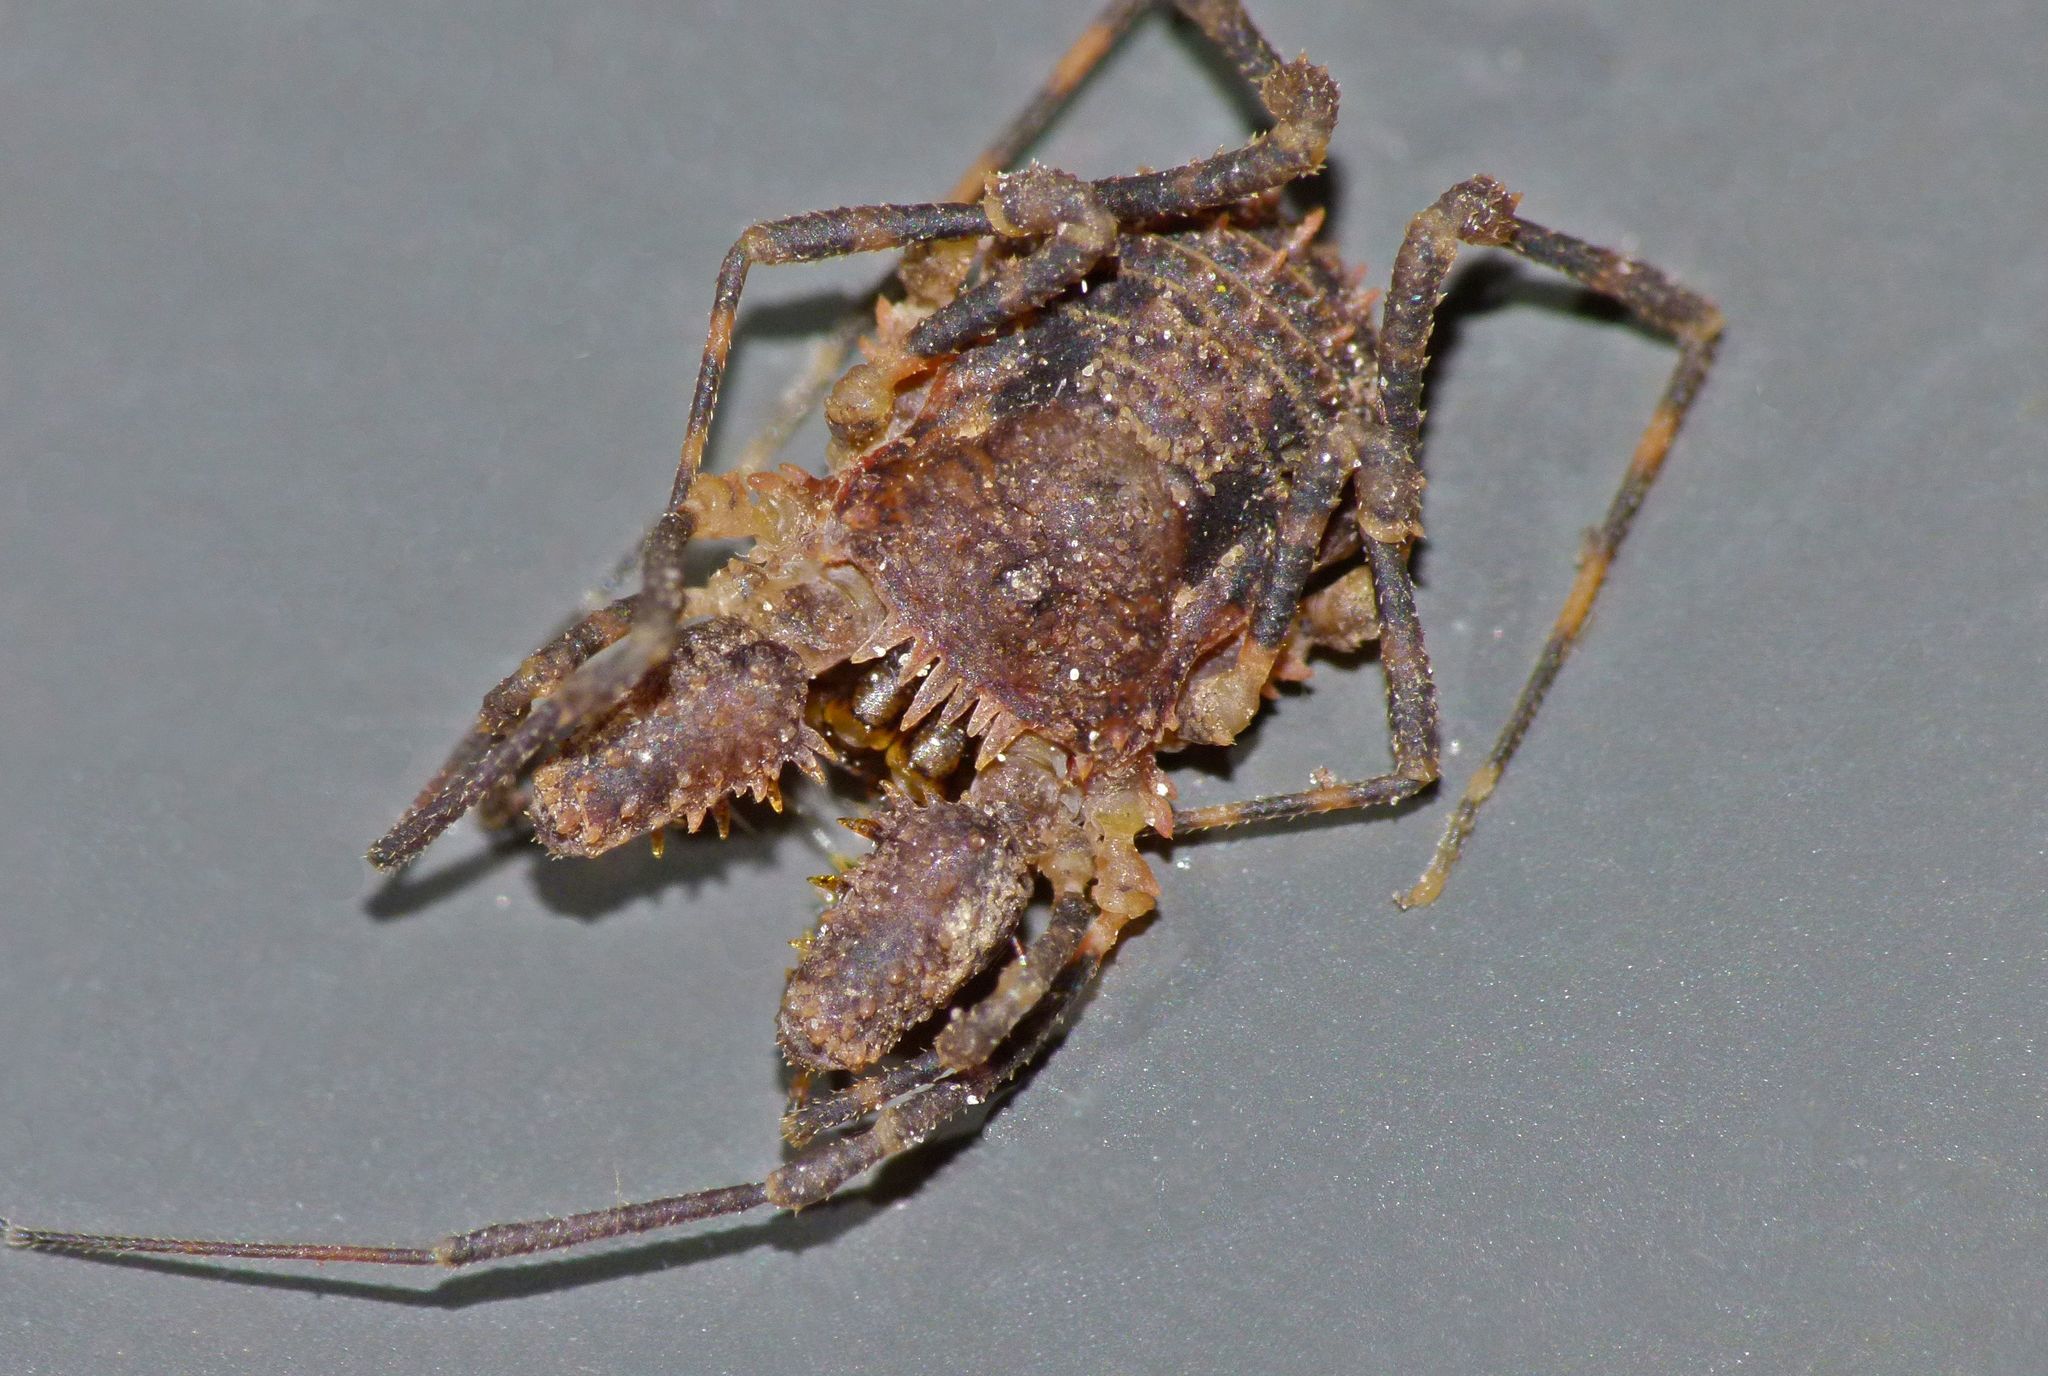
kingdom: Animalia
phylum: Arthropoda
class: Arachnida
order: Opiliones
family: Triaenonychidae
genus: Algidia
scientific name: Algidia cuspidata
